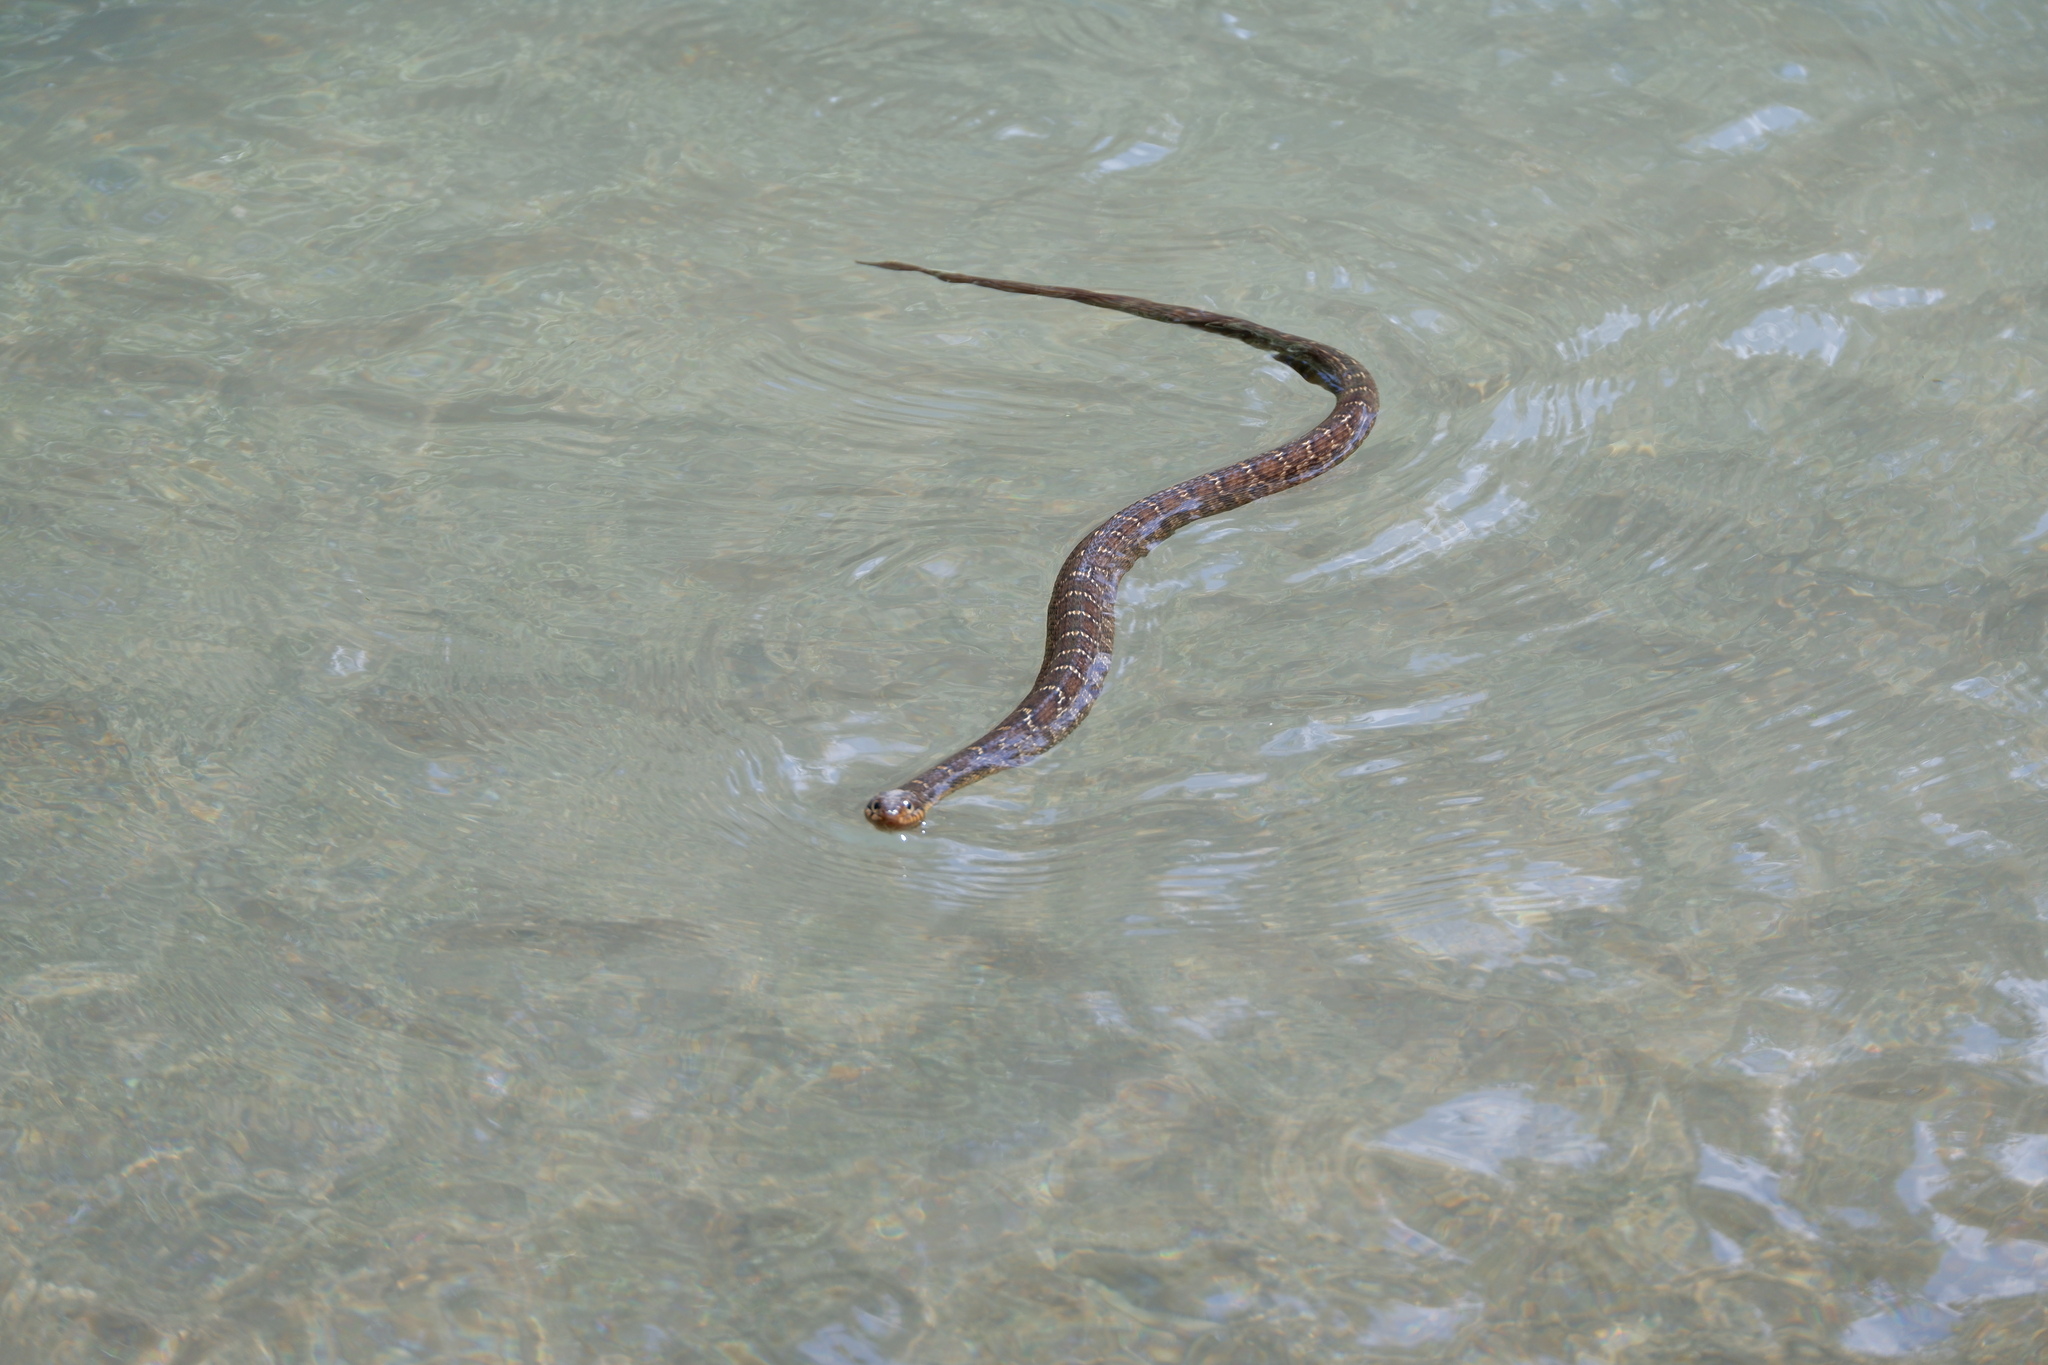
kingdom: Animalia
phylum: Chordata
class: Squamata
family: Colubridae
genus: Nerodia
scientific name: Nerodia erythrogaster
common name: Plainbelly water snake
